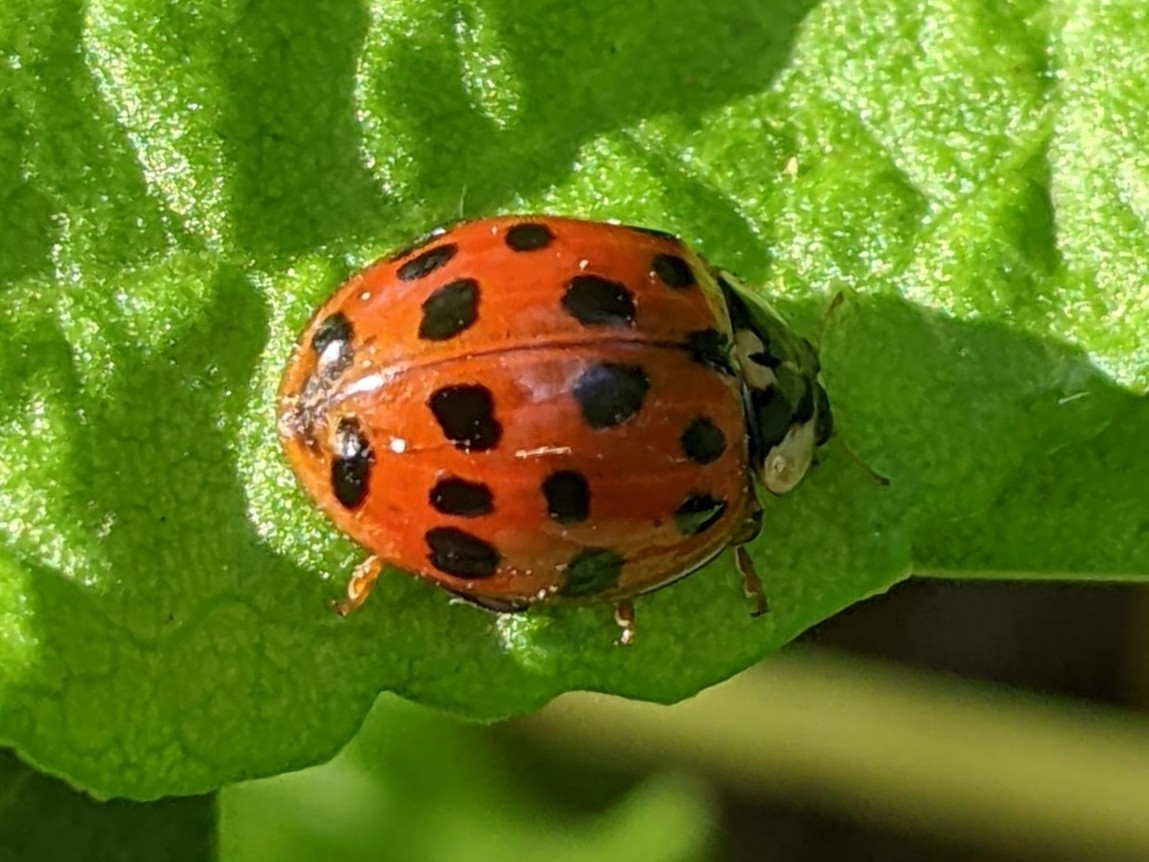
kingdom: Animalia
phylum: Arthropoda
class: Insecta
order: Coleoptera
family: Coccinellidae
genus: Harmonia
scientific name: Harmonia axyridis
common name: Harlequin ladybird
